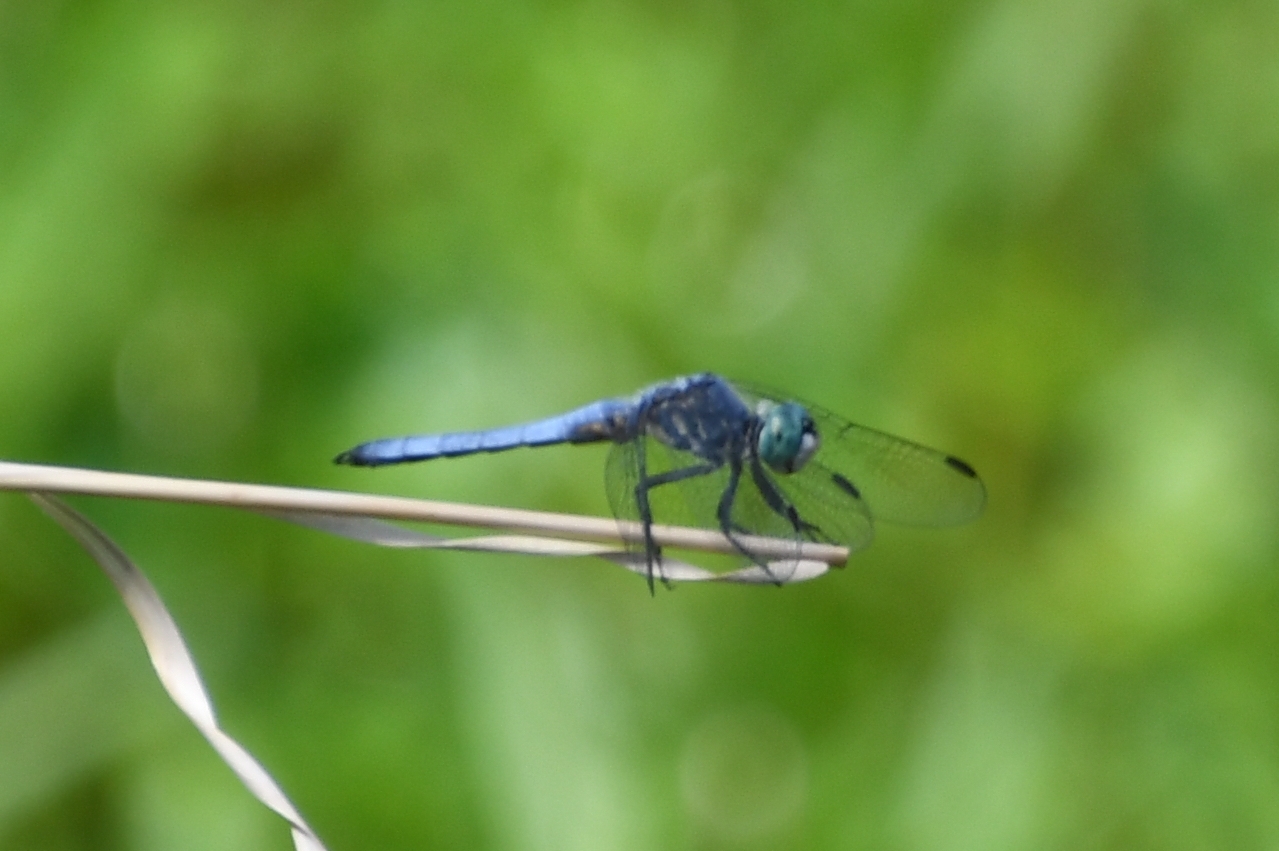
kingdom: Animalia
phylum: Arthropoda
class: Insecta
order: Odonata
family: Libellulidae
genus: Pachydiplax
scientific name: Pachydiplax longipennis
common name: Blue dasher
